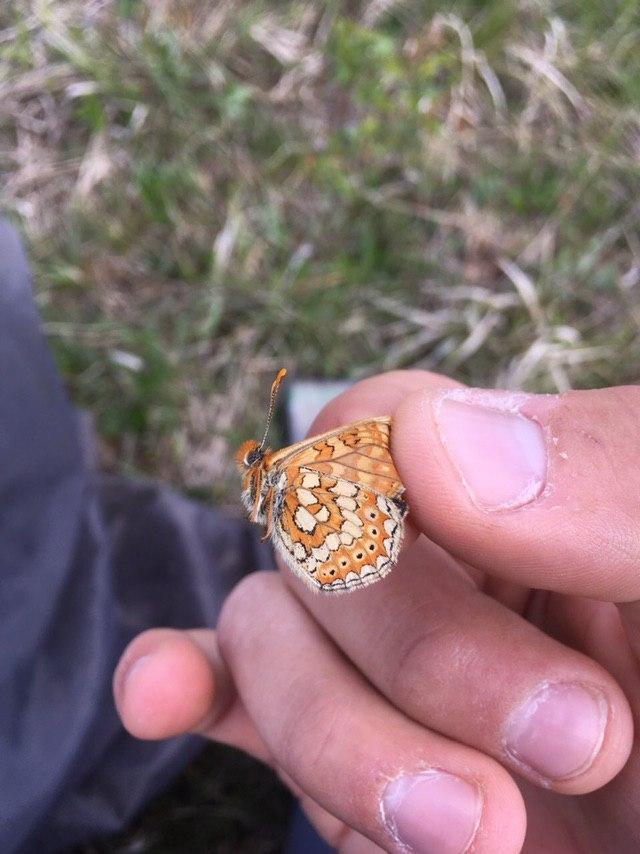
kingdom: Animalia
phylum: Arthropoda
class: Insecta
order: Lepidoptera
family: Nymphalidae
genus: Euphydryas
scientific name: Euphydryas aurinia
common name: Marsh fritillary
